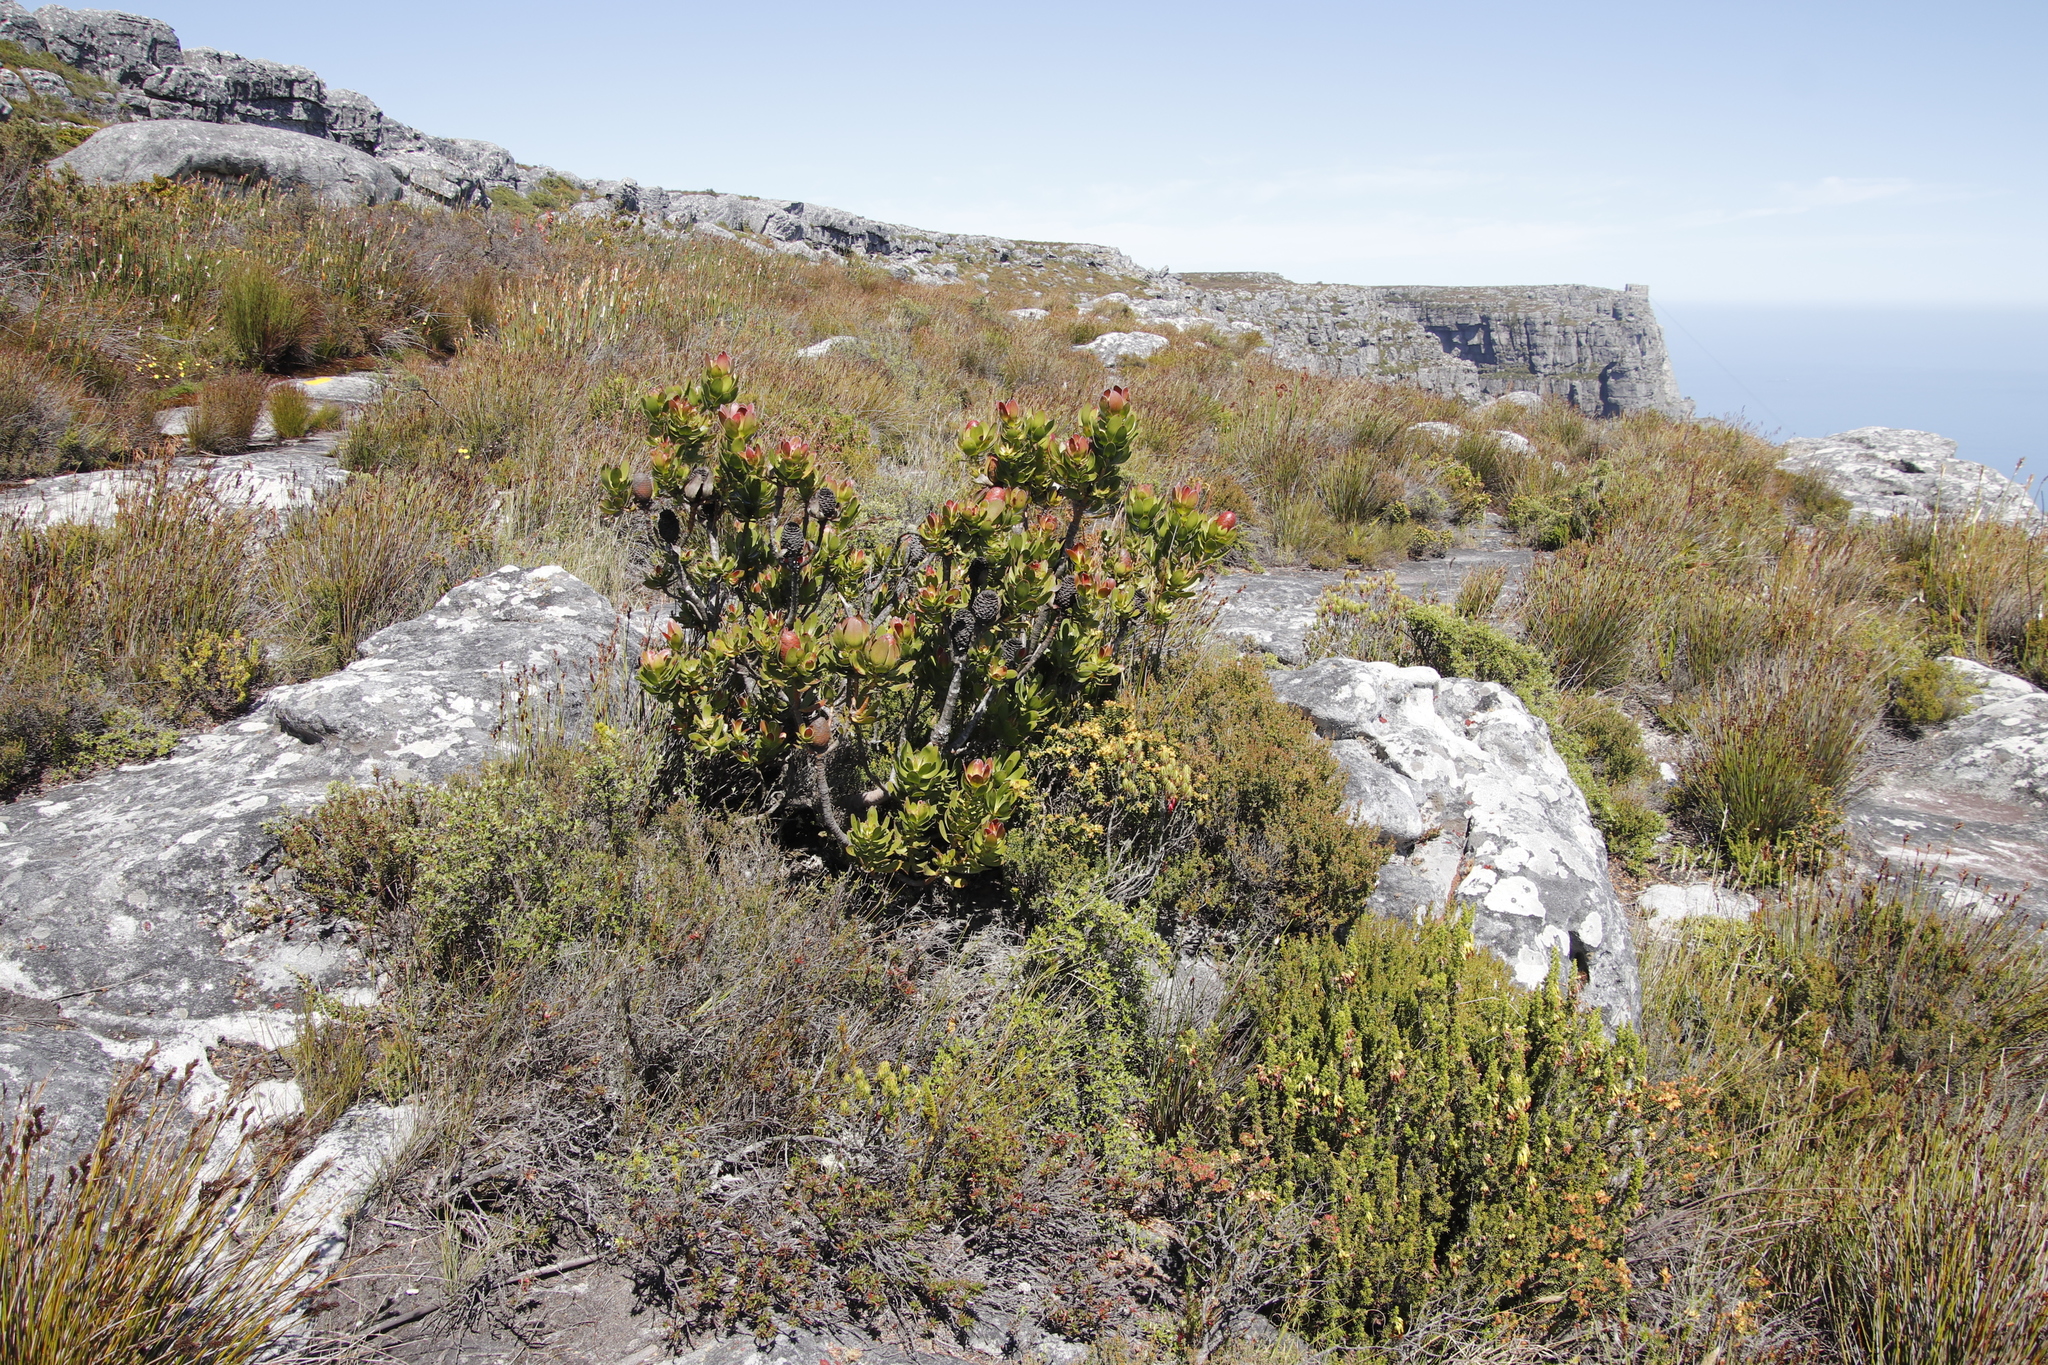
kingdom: Plantae
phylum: Tracheophyta
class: Magnoliopsida
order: Proteales
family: Proteaceae
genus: Leucadendron
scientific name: Leucadendron strobilinum
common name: Mountain rose
